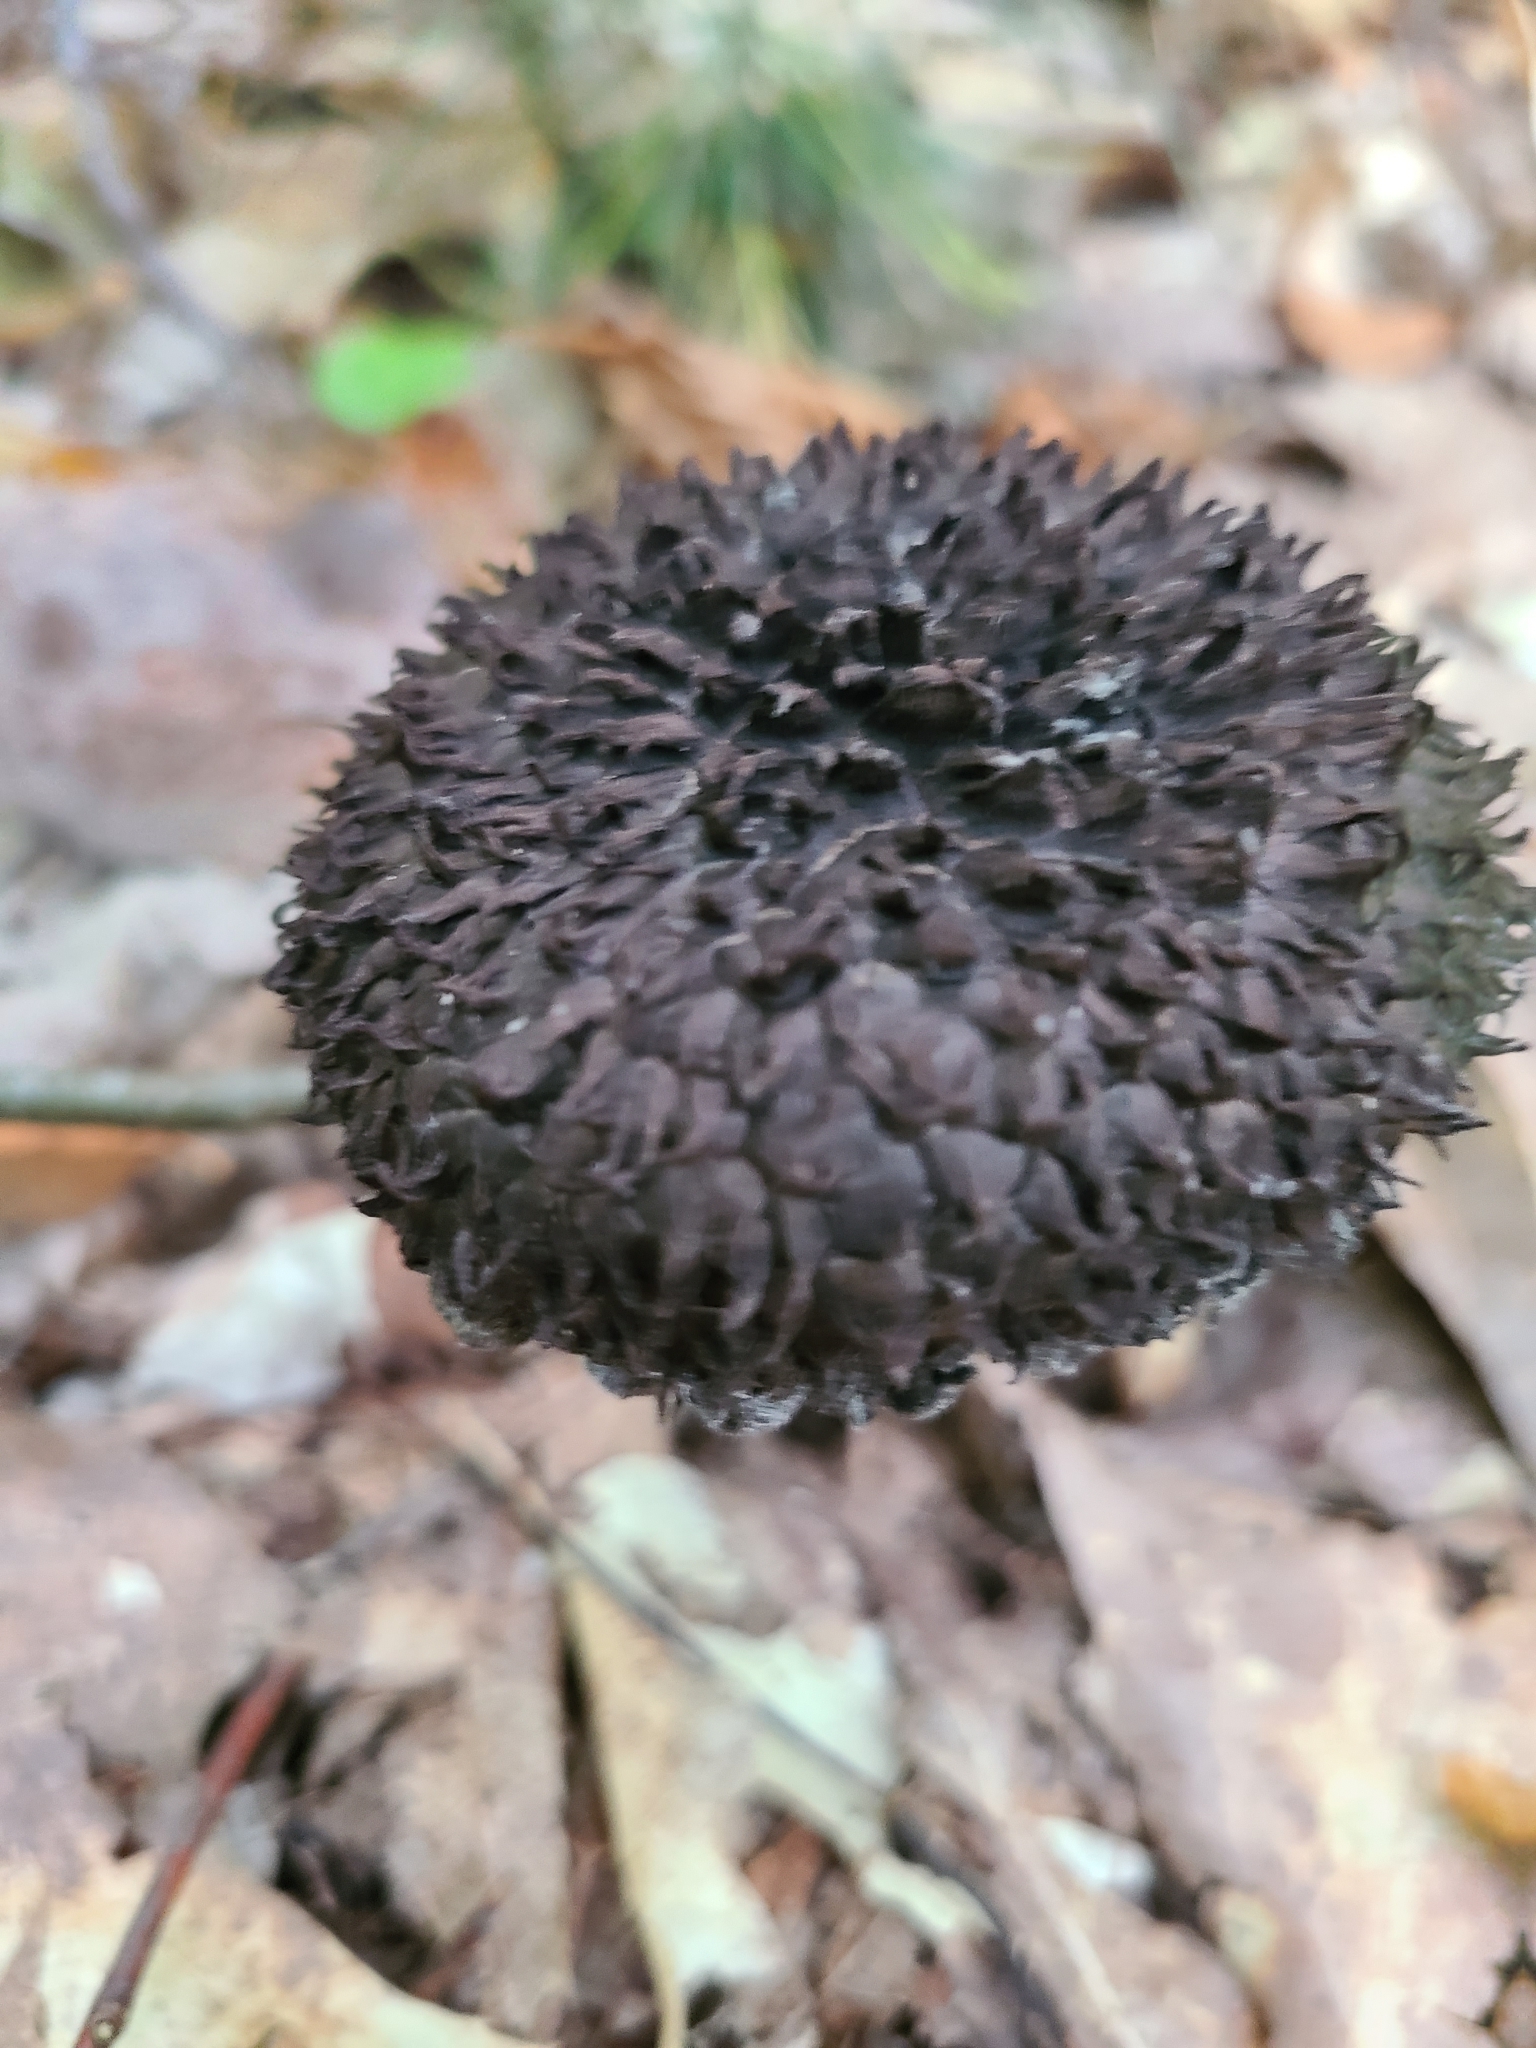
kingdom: Fungi
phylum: Basidiomycota
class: Agaricomycetes
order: Boletales
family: Boletaceae
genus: Strobilomyces
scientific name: Strobilomyces strobilaceus
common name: Old man of the woods
